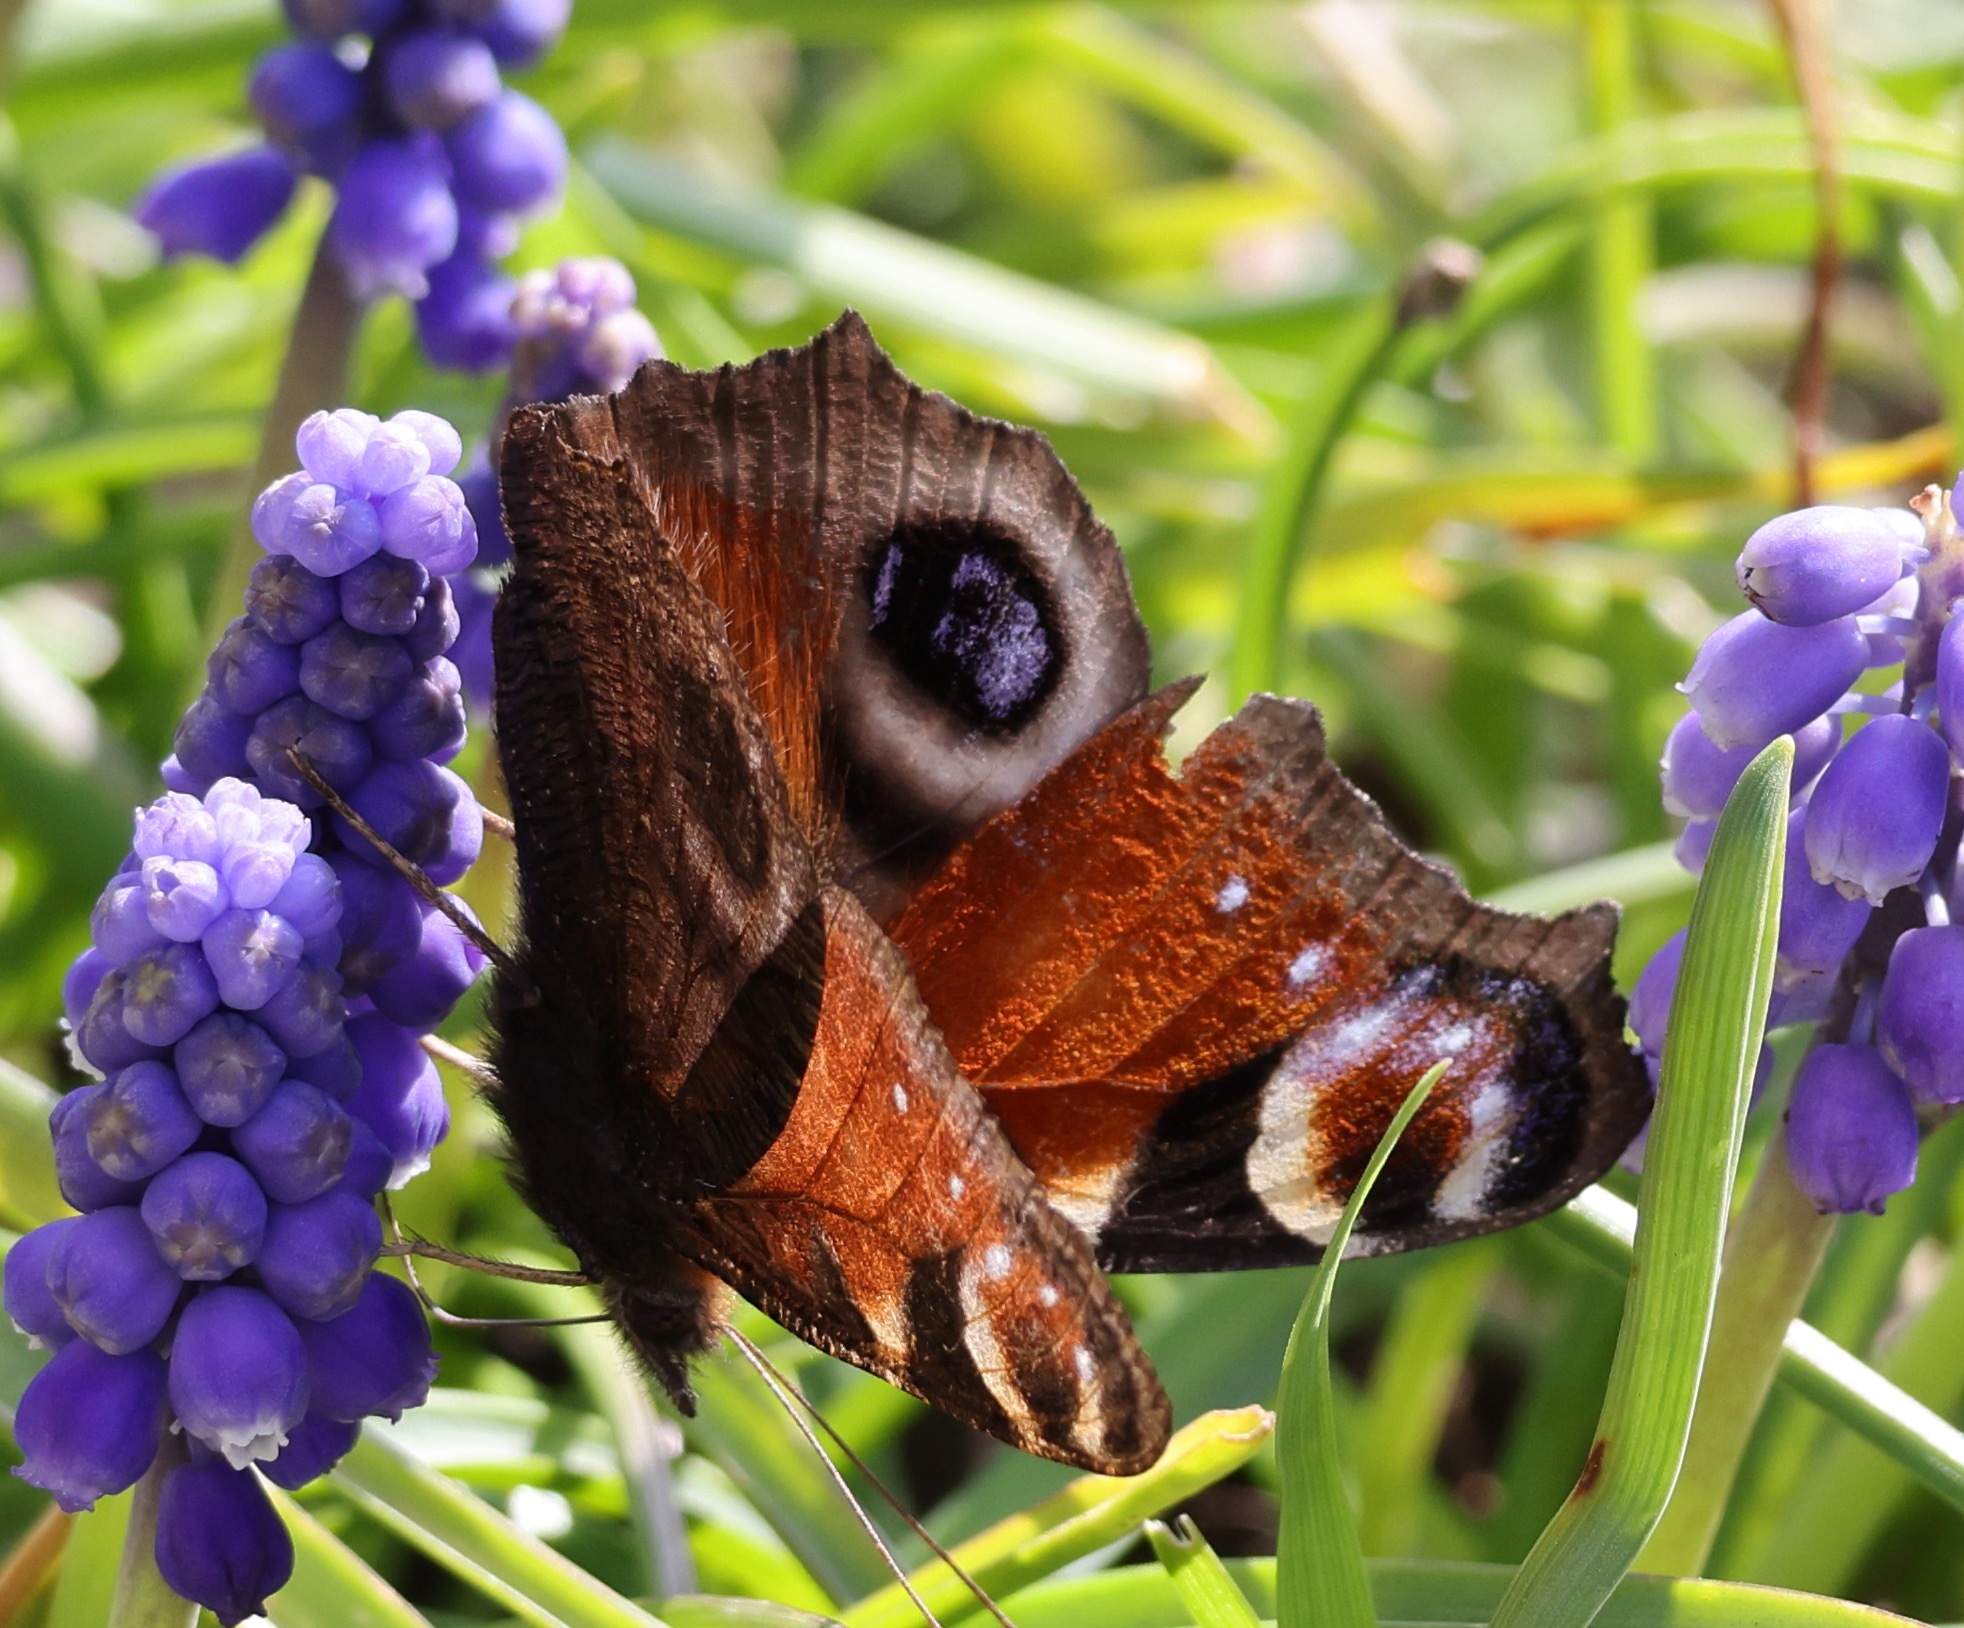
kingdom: Animalia
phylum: Arthropoda
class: Insecta
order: Lepidoptera
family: Nymphalidae
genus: Aglais
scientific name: Aglais io
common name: Peacock
